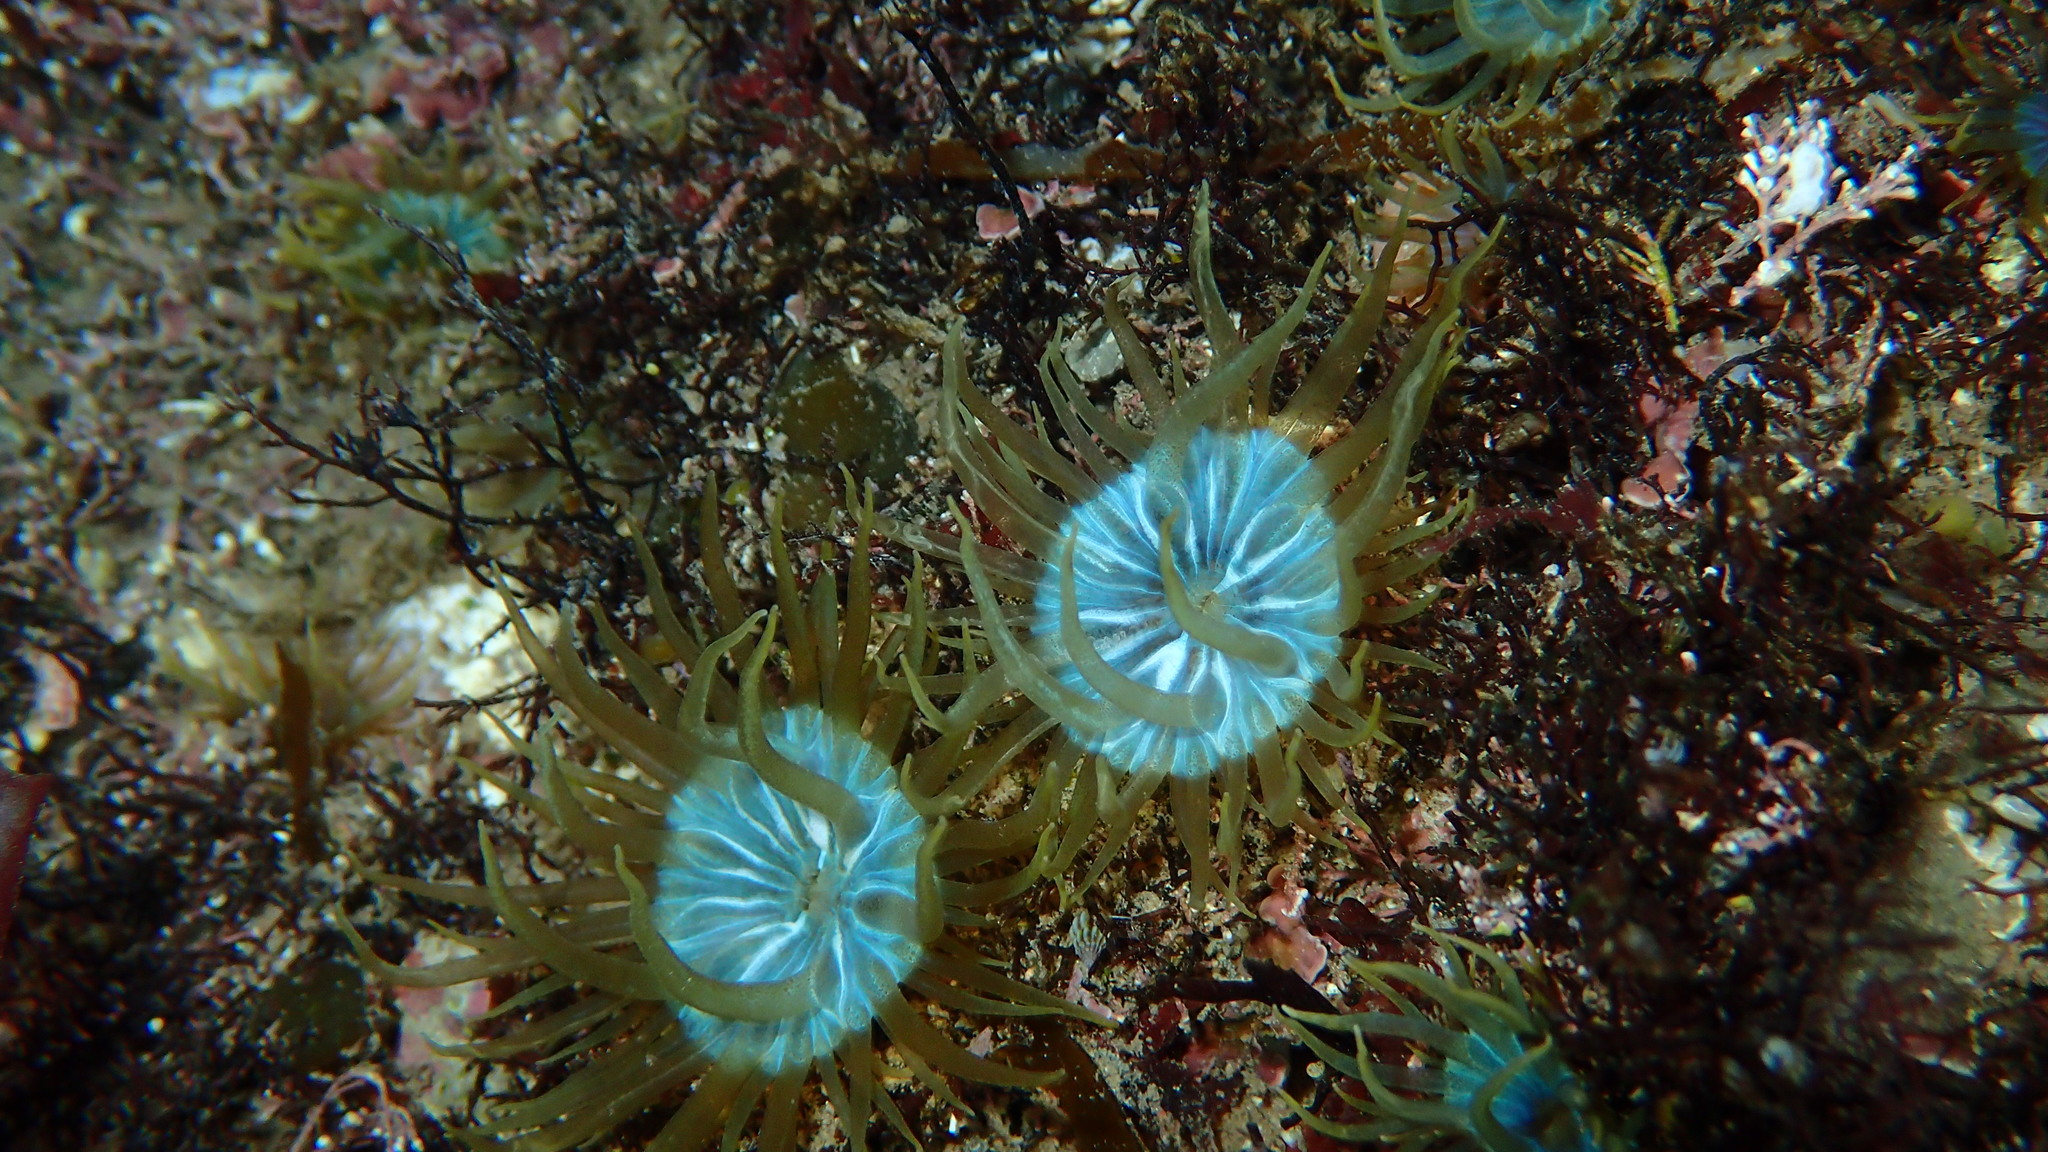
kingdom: Animalia
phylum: Cnidaria
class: Anthozoa
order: Actiniaria
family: Aiptasiidae
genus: Aiptasia
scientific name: Aiptasia couchii
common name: Trumpet anemone
